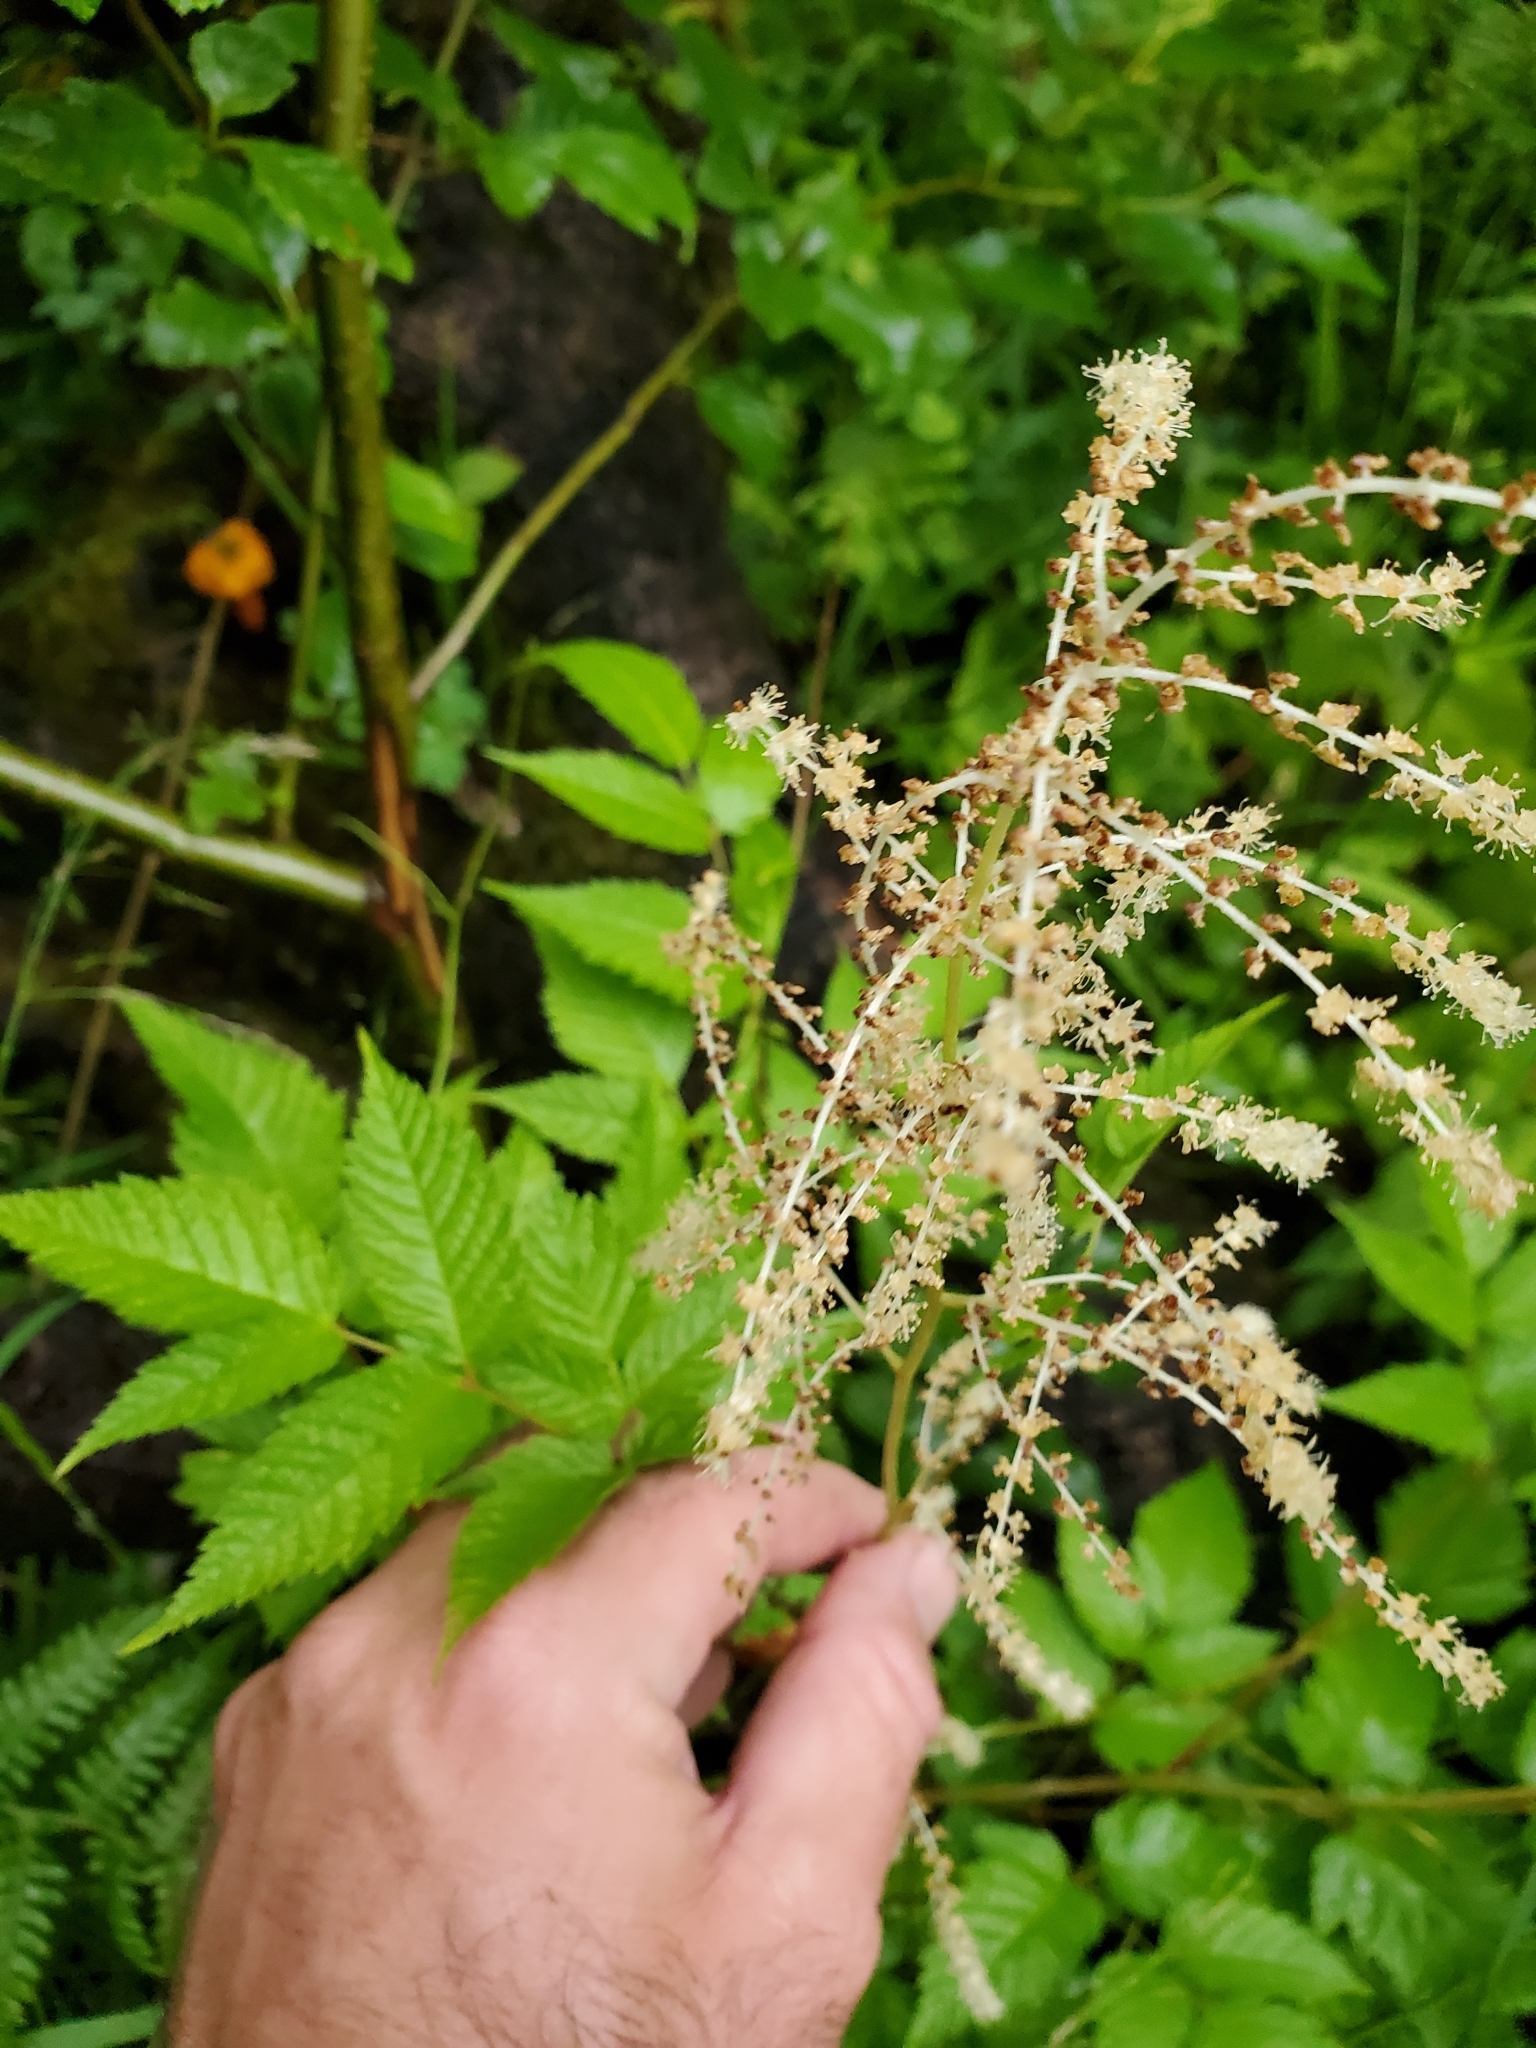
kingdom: Plantae
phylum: Tracheophyta
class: Magnoliopsida
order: Rosales
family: Rosaceae
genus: Aruncus
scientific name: Aruncus dioicus
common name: Buck's-beard
